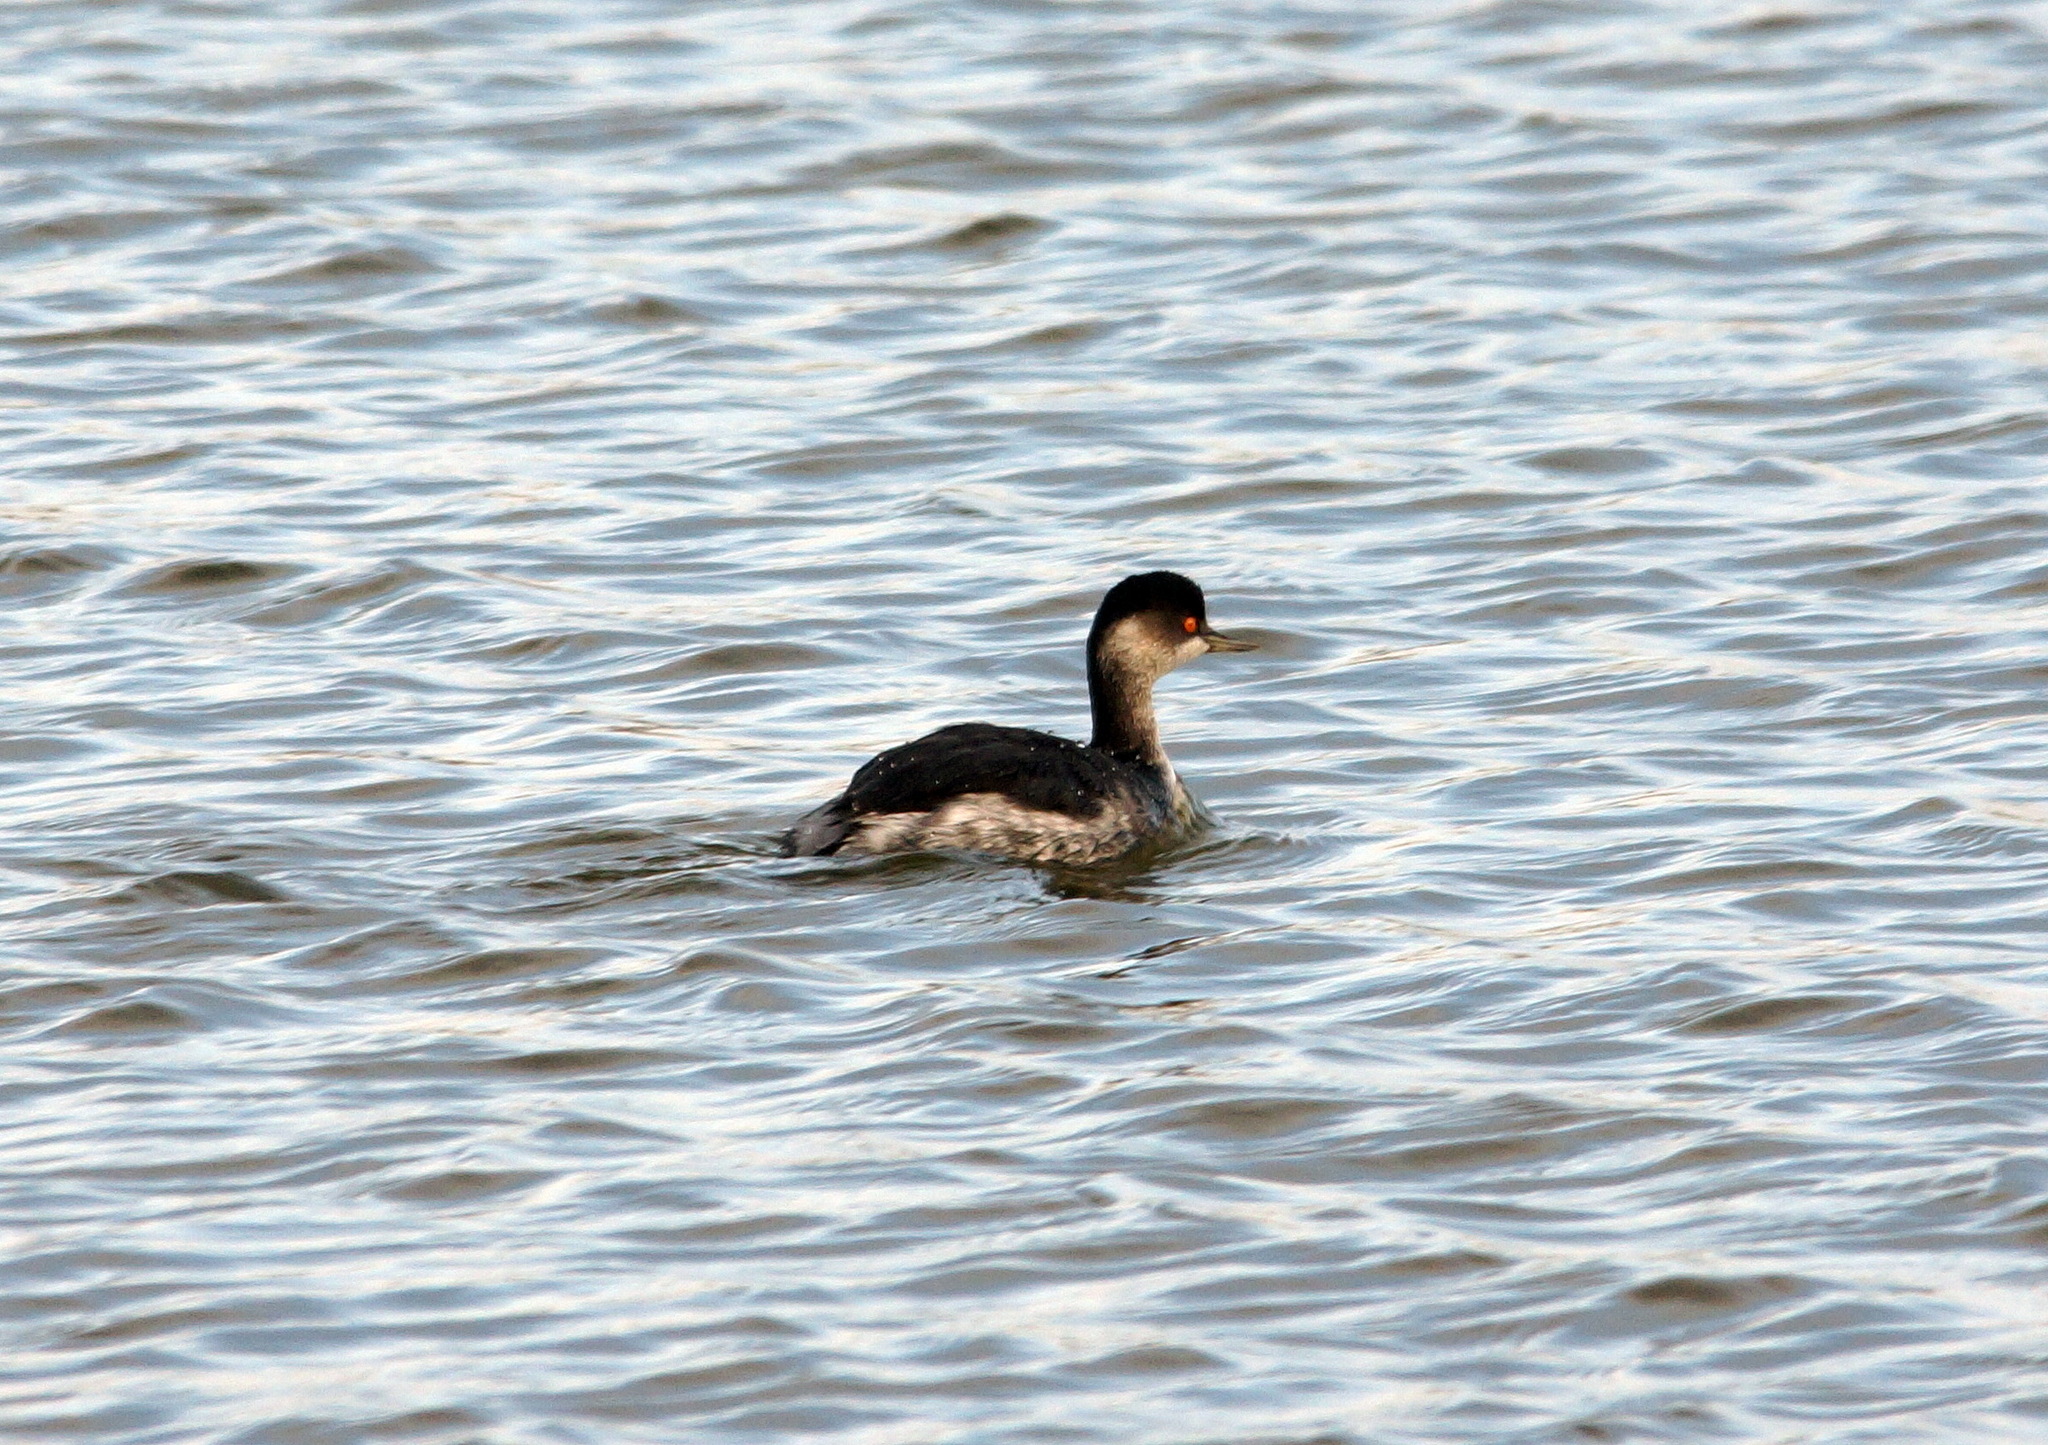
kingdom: Animalia
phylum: Chordata
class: Aves
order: Podicipediformes
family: Podicipedidae
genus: Podiceps
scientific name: Podiceps nigricollis
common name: Black-necked grebe
